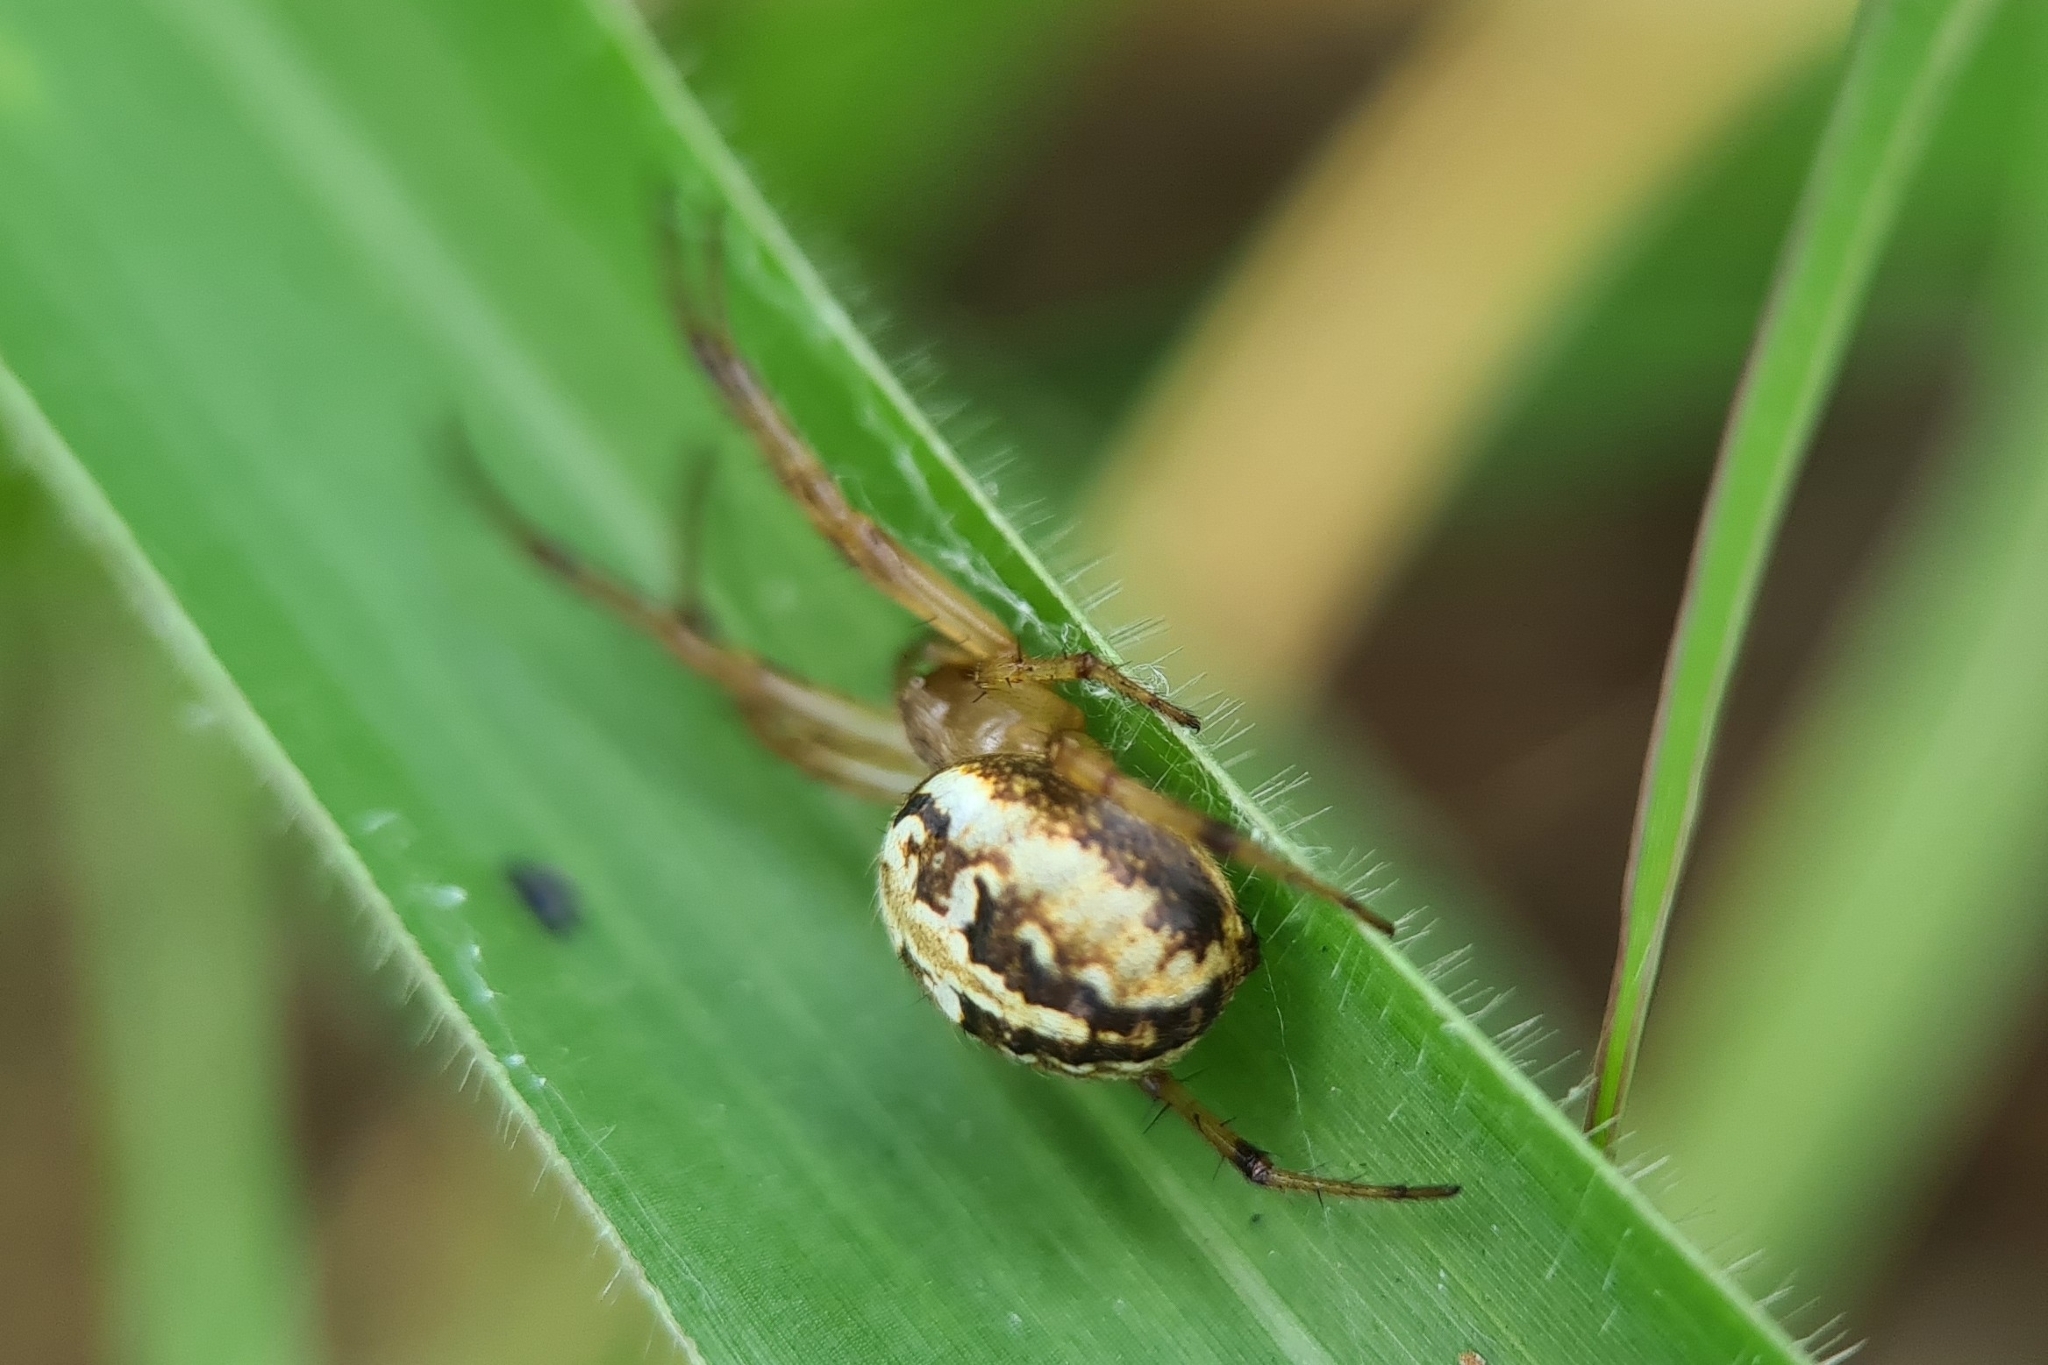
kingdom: Animalia
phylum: Arthropoda
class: Arachnida
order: Araneae
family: Araneidae
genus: Neoscona
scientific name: Neoscona theisi
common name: Spider
